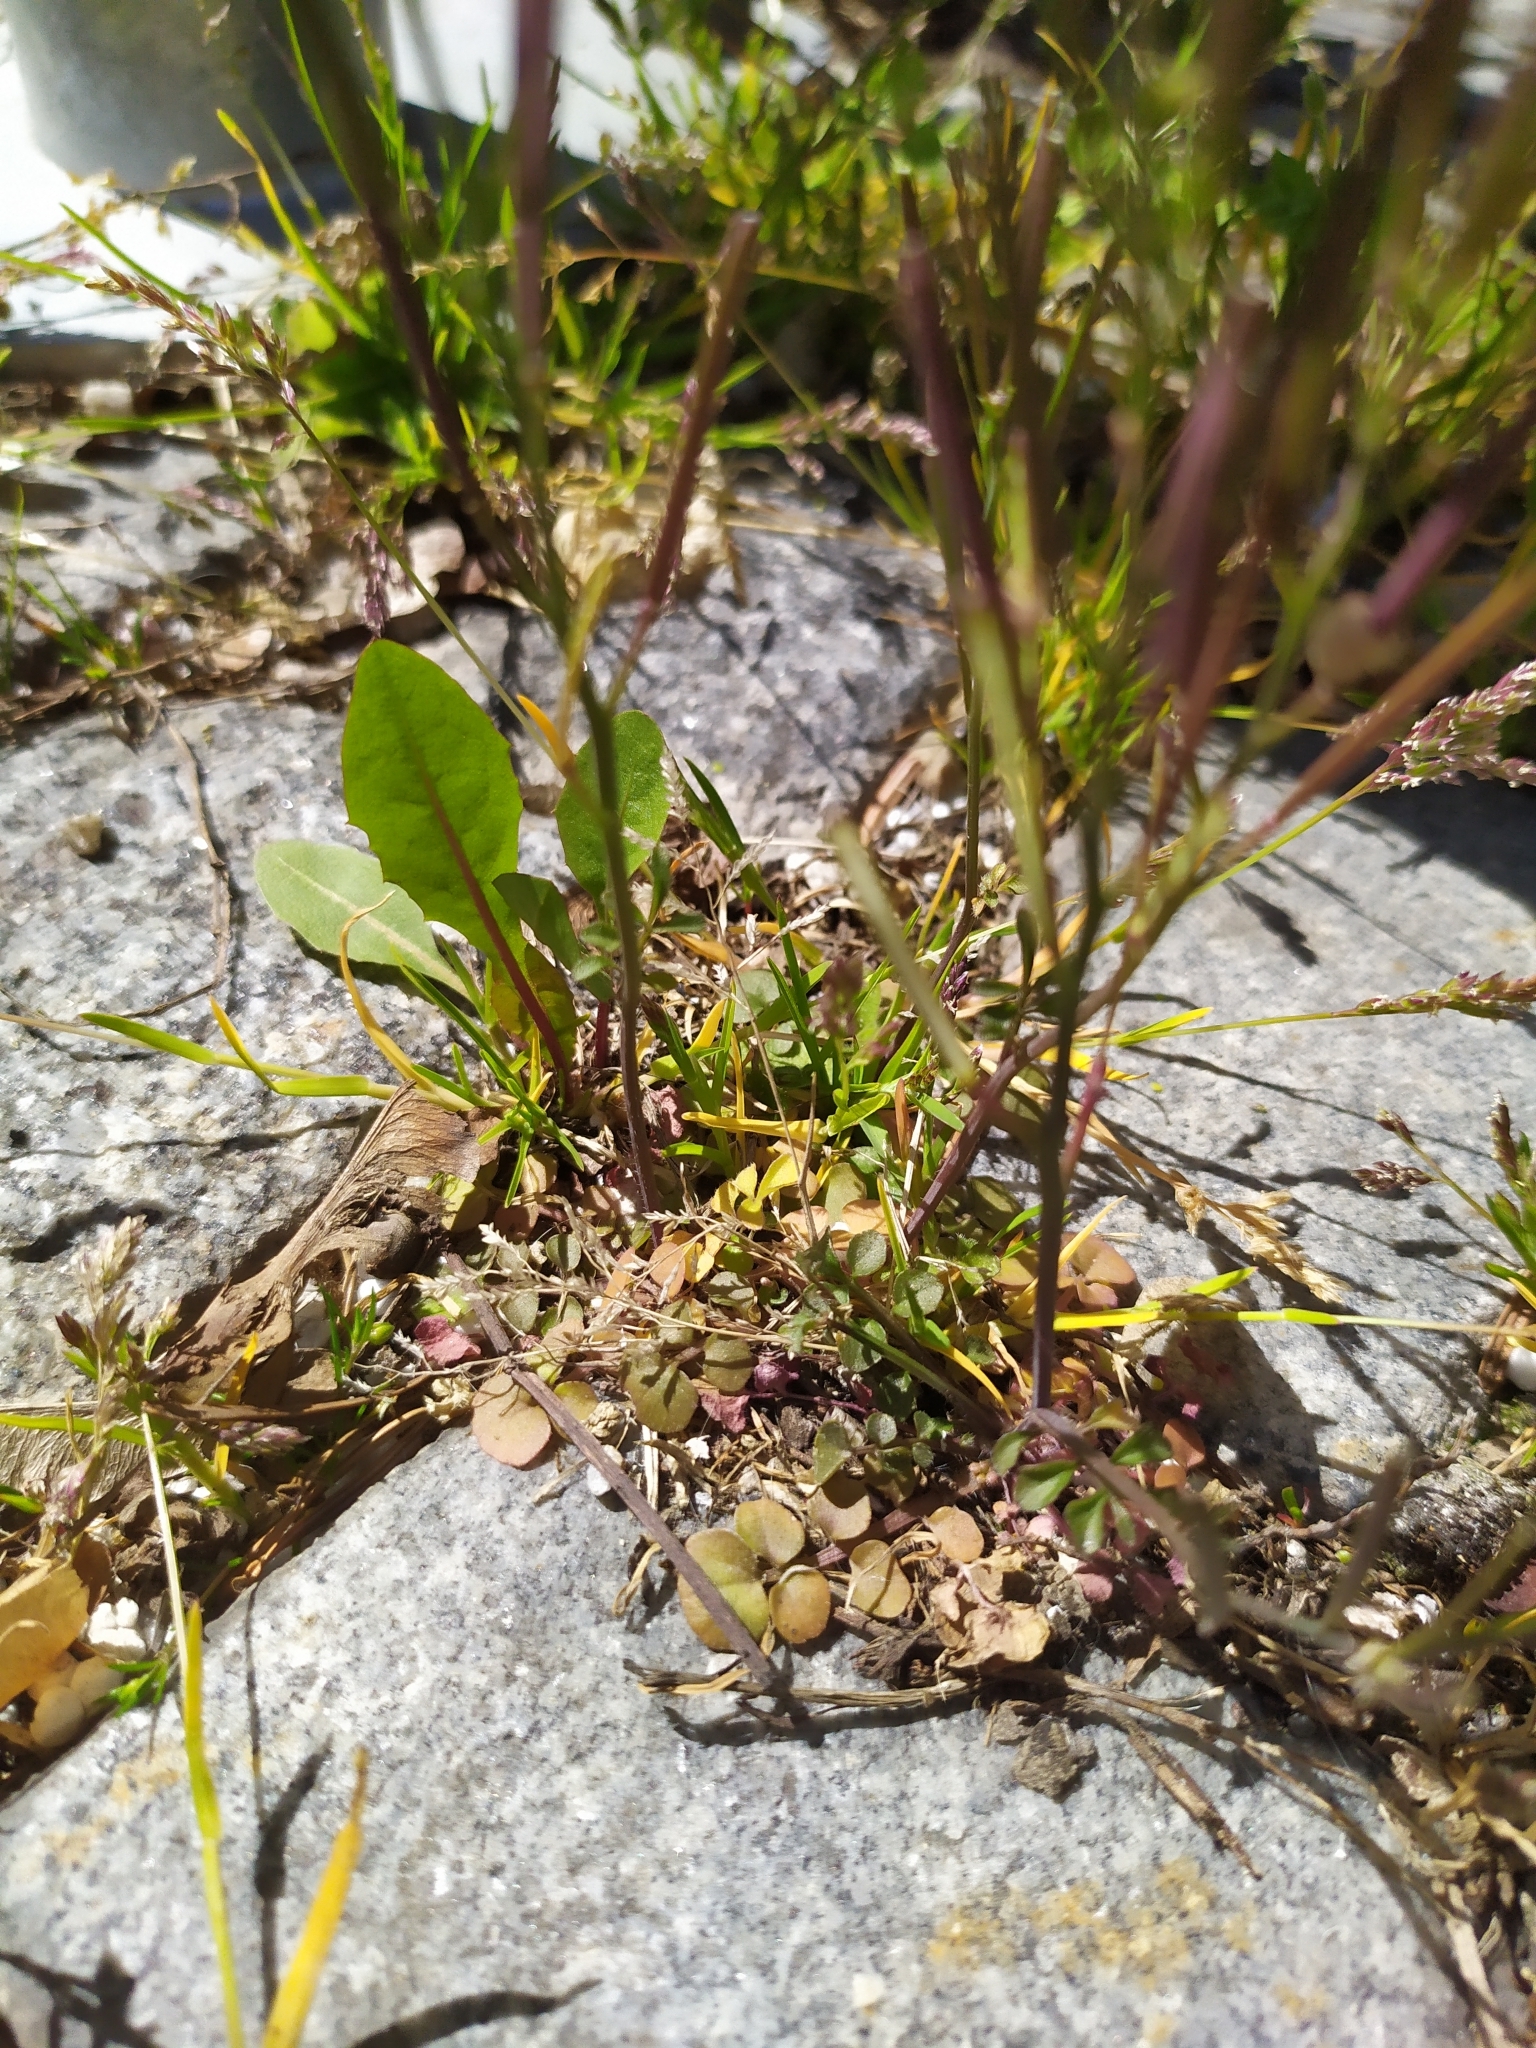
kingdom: Plantae
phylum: Tracheophyta
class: Magnoliopsida
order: Brassicales
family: Brassicaceae
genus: Cardamine
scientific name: Cardamine hirsuta
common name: Hairy bittercress
